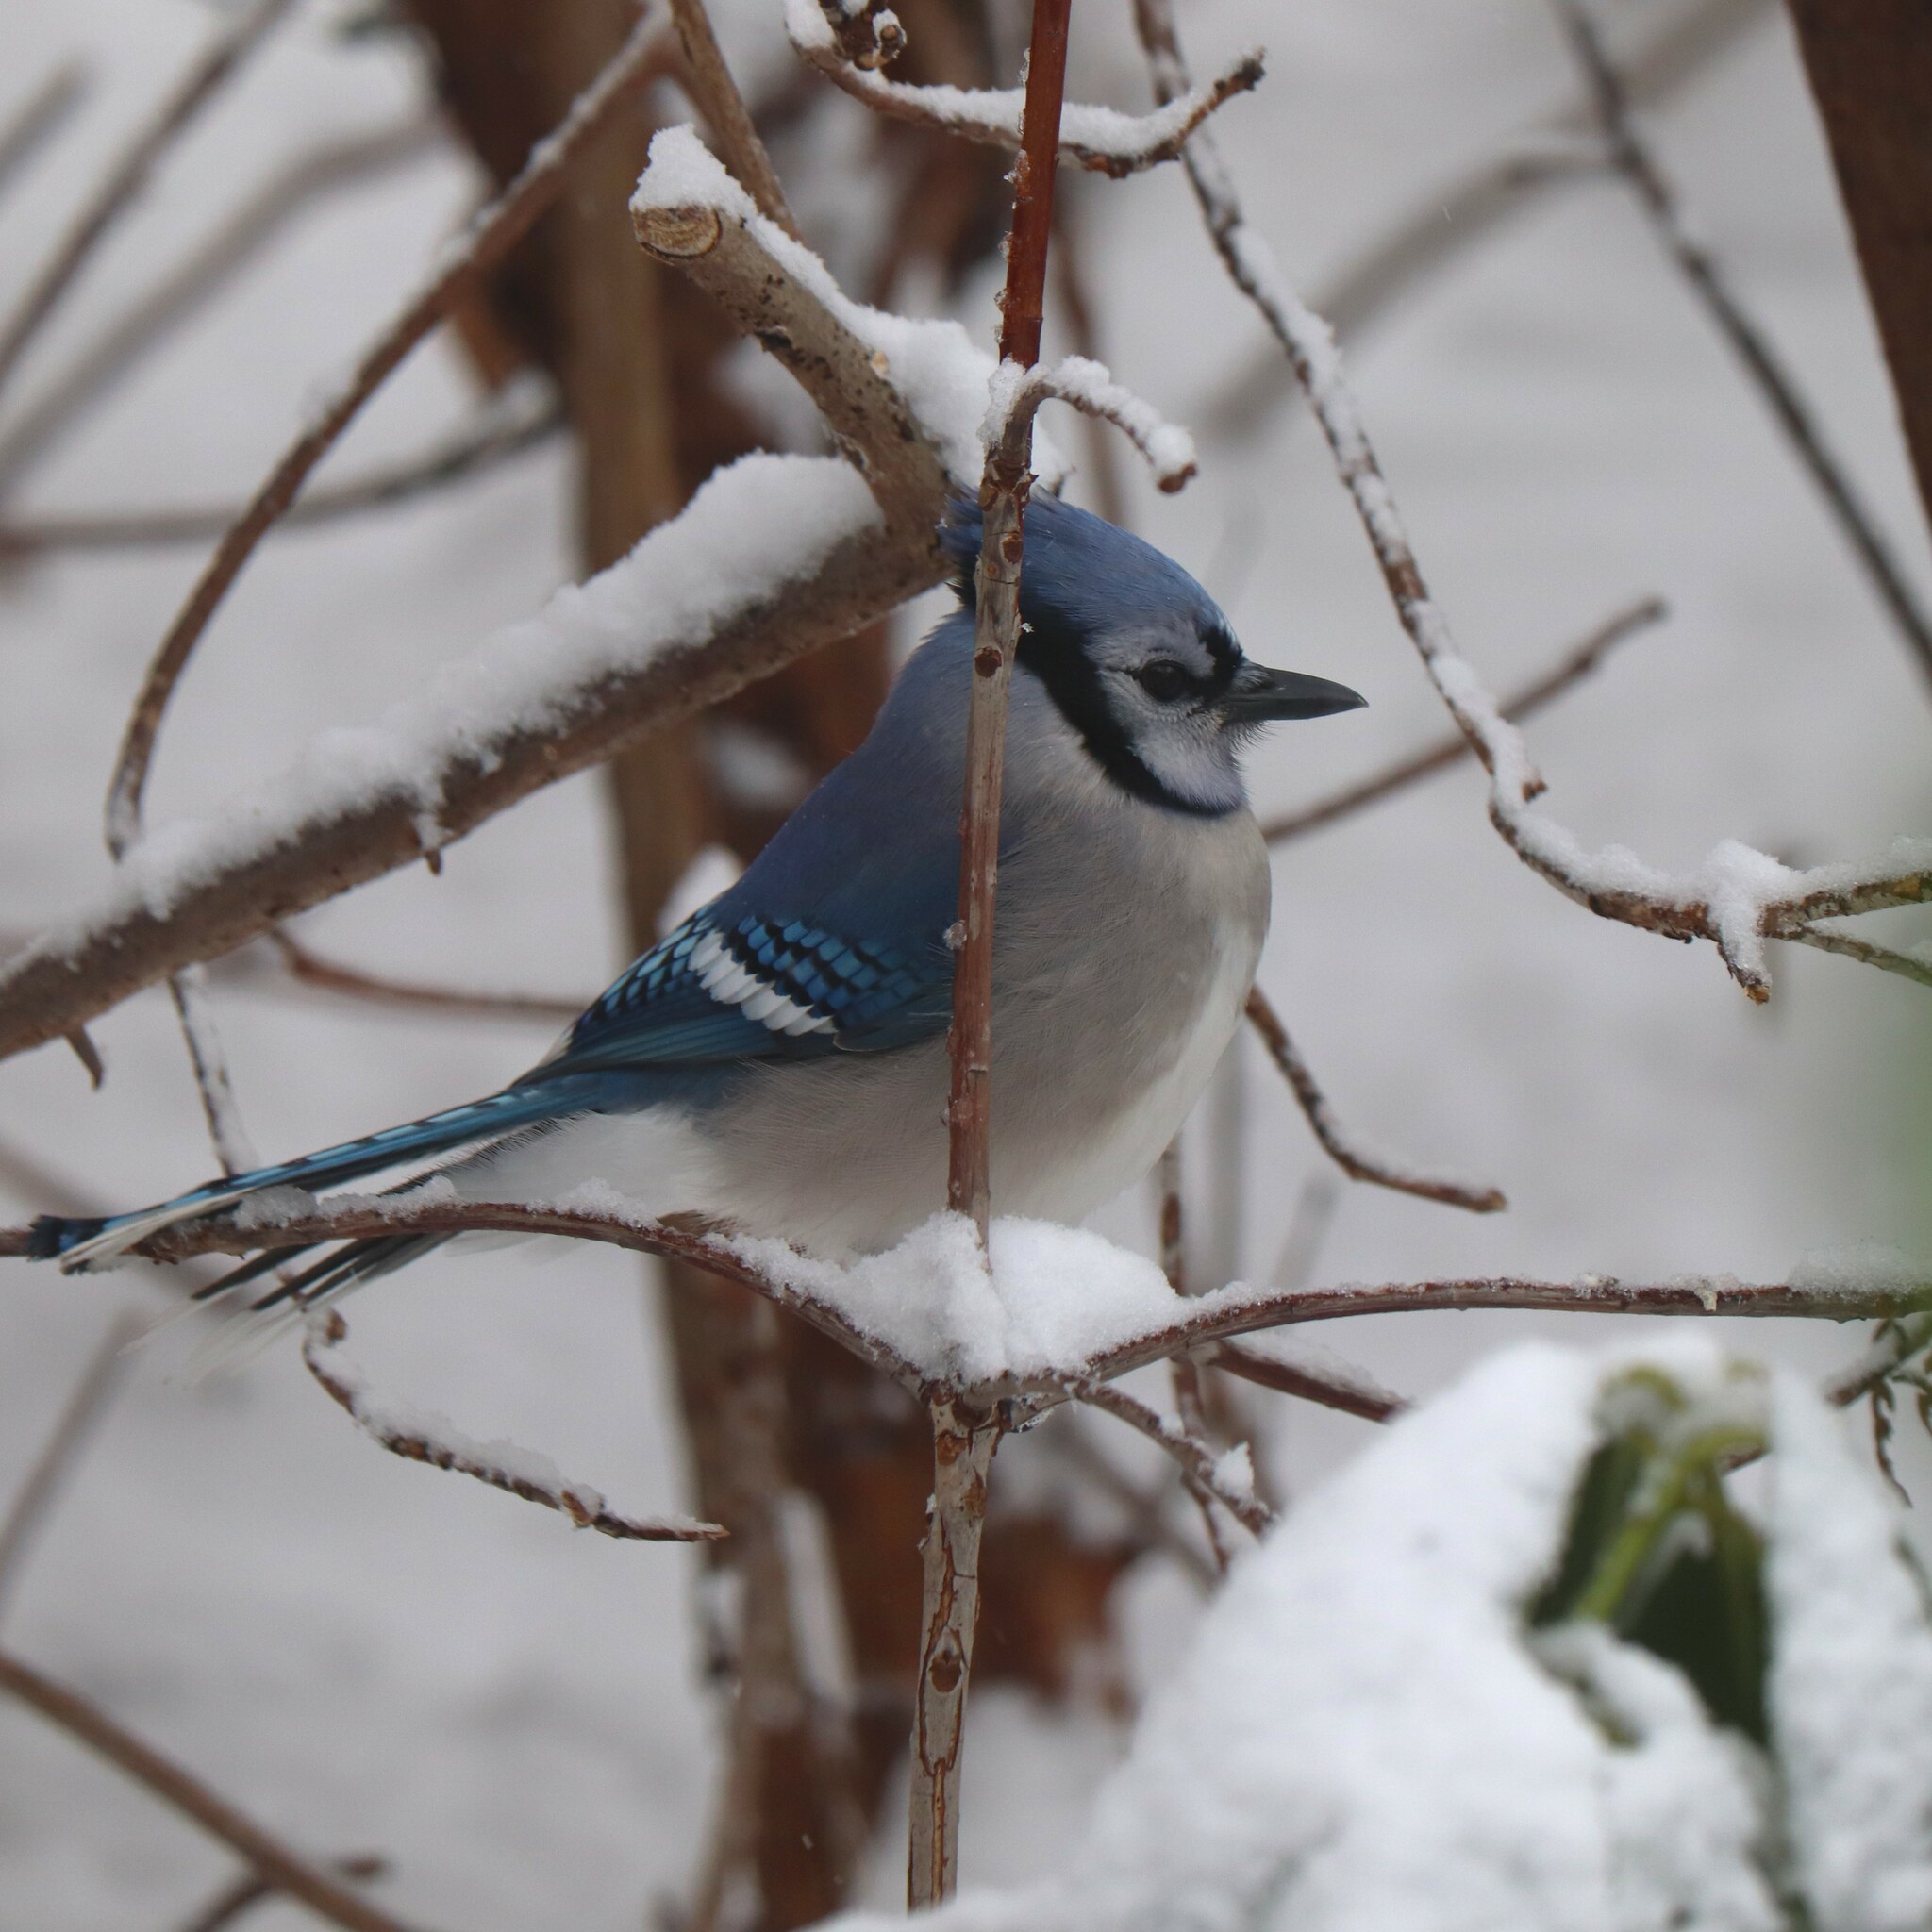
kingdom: Animalia
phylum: Chordata
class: Aves
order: Passeriformes
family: Corvidae
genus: Cyanocitta
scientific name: Cyanocitta cristata
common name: Blue jay
